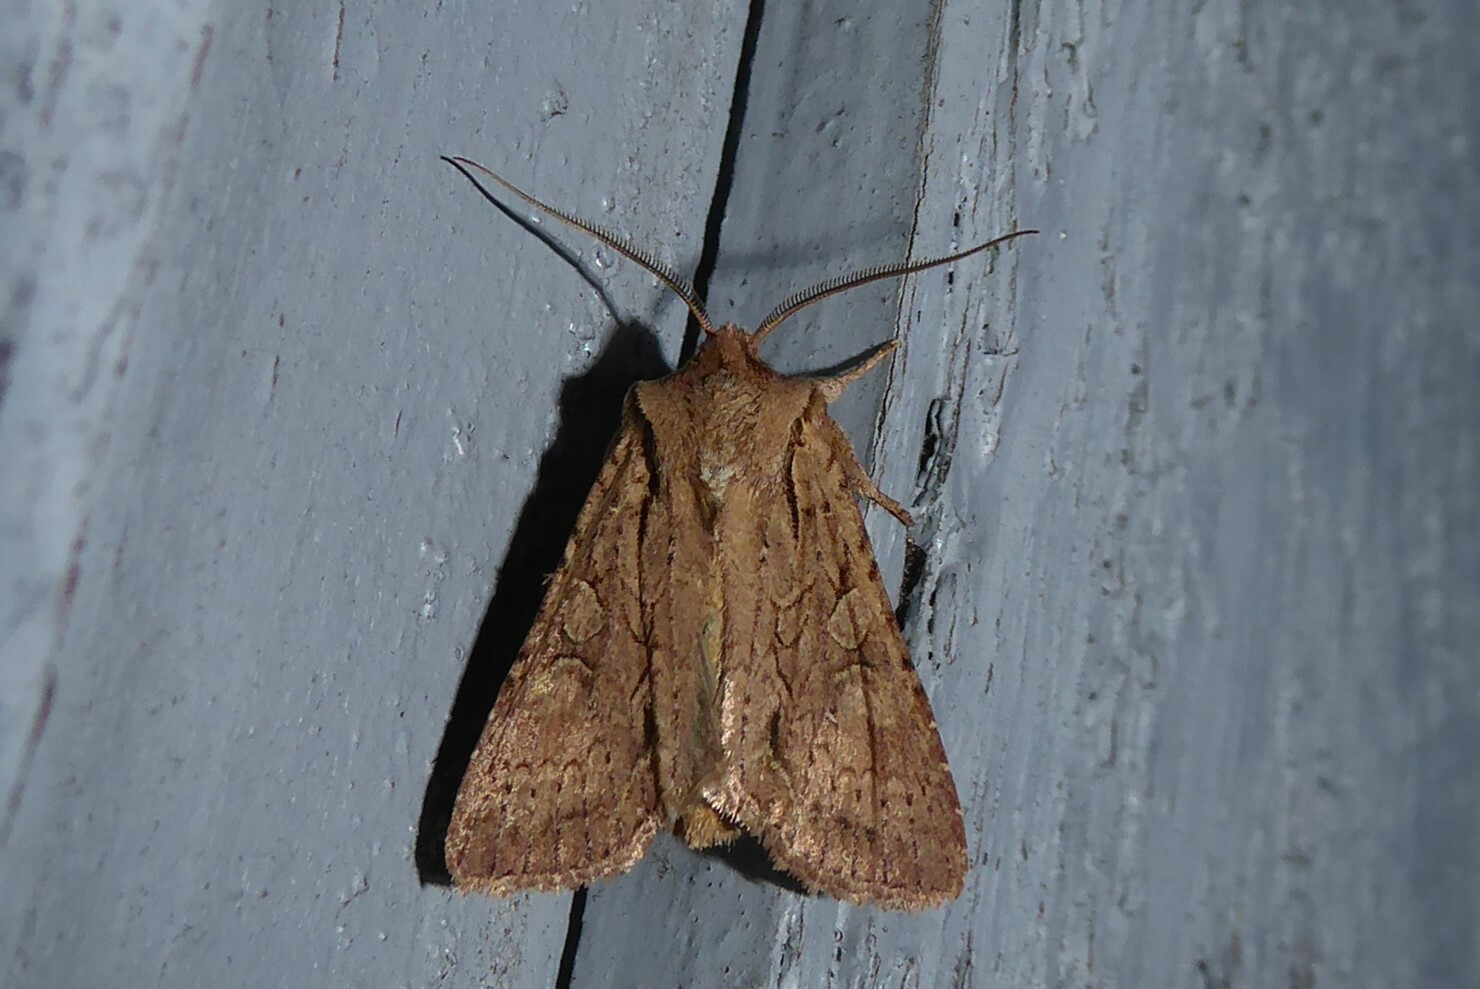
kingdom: Animalia
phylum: Arthropoda
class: Insecta
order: Lepidoptera
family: Noctuidae
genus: Ichneutica
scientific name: Ichneutica
